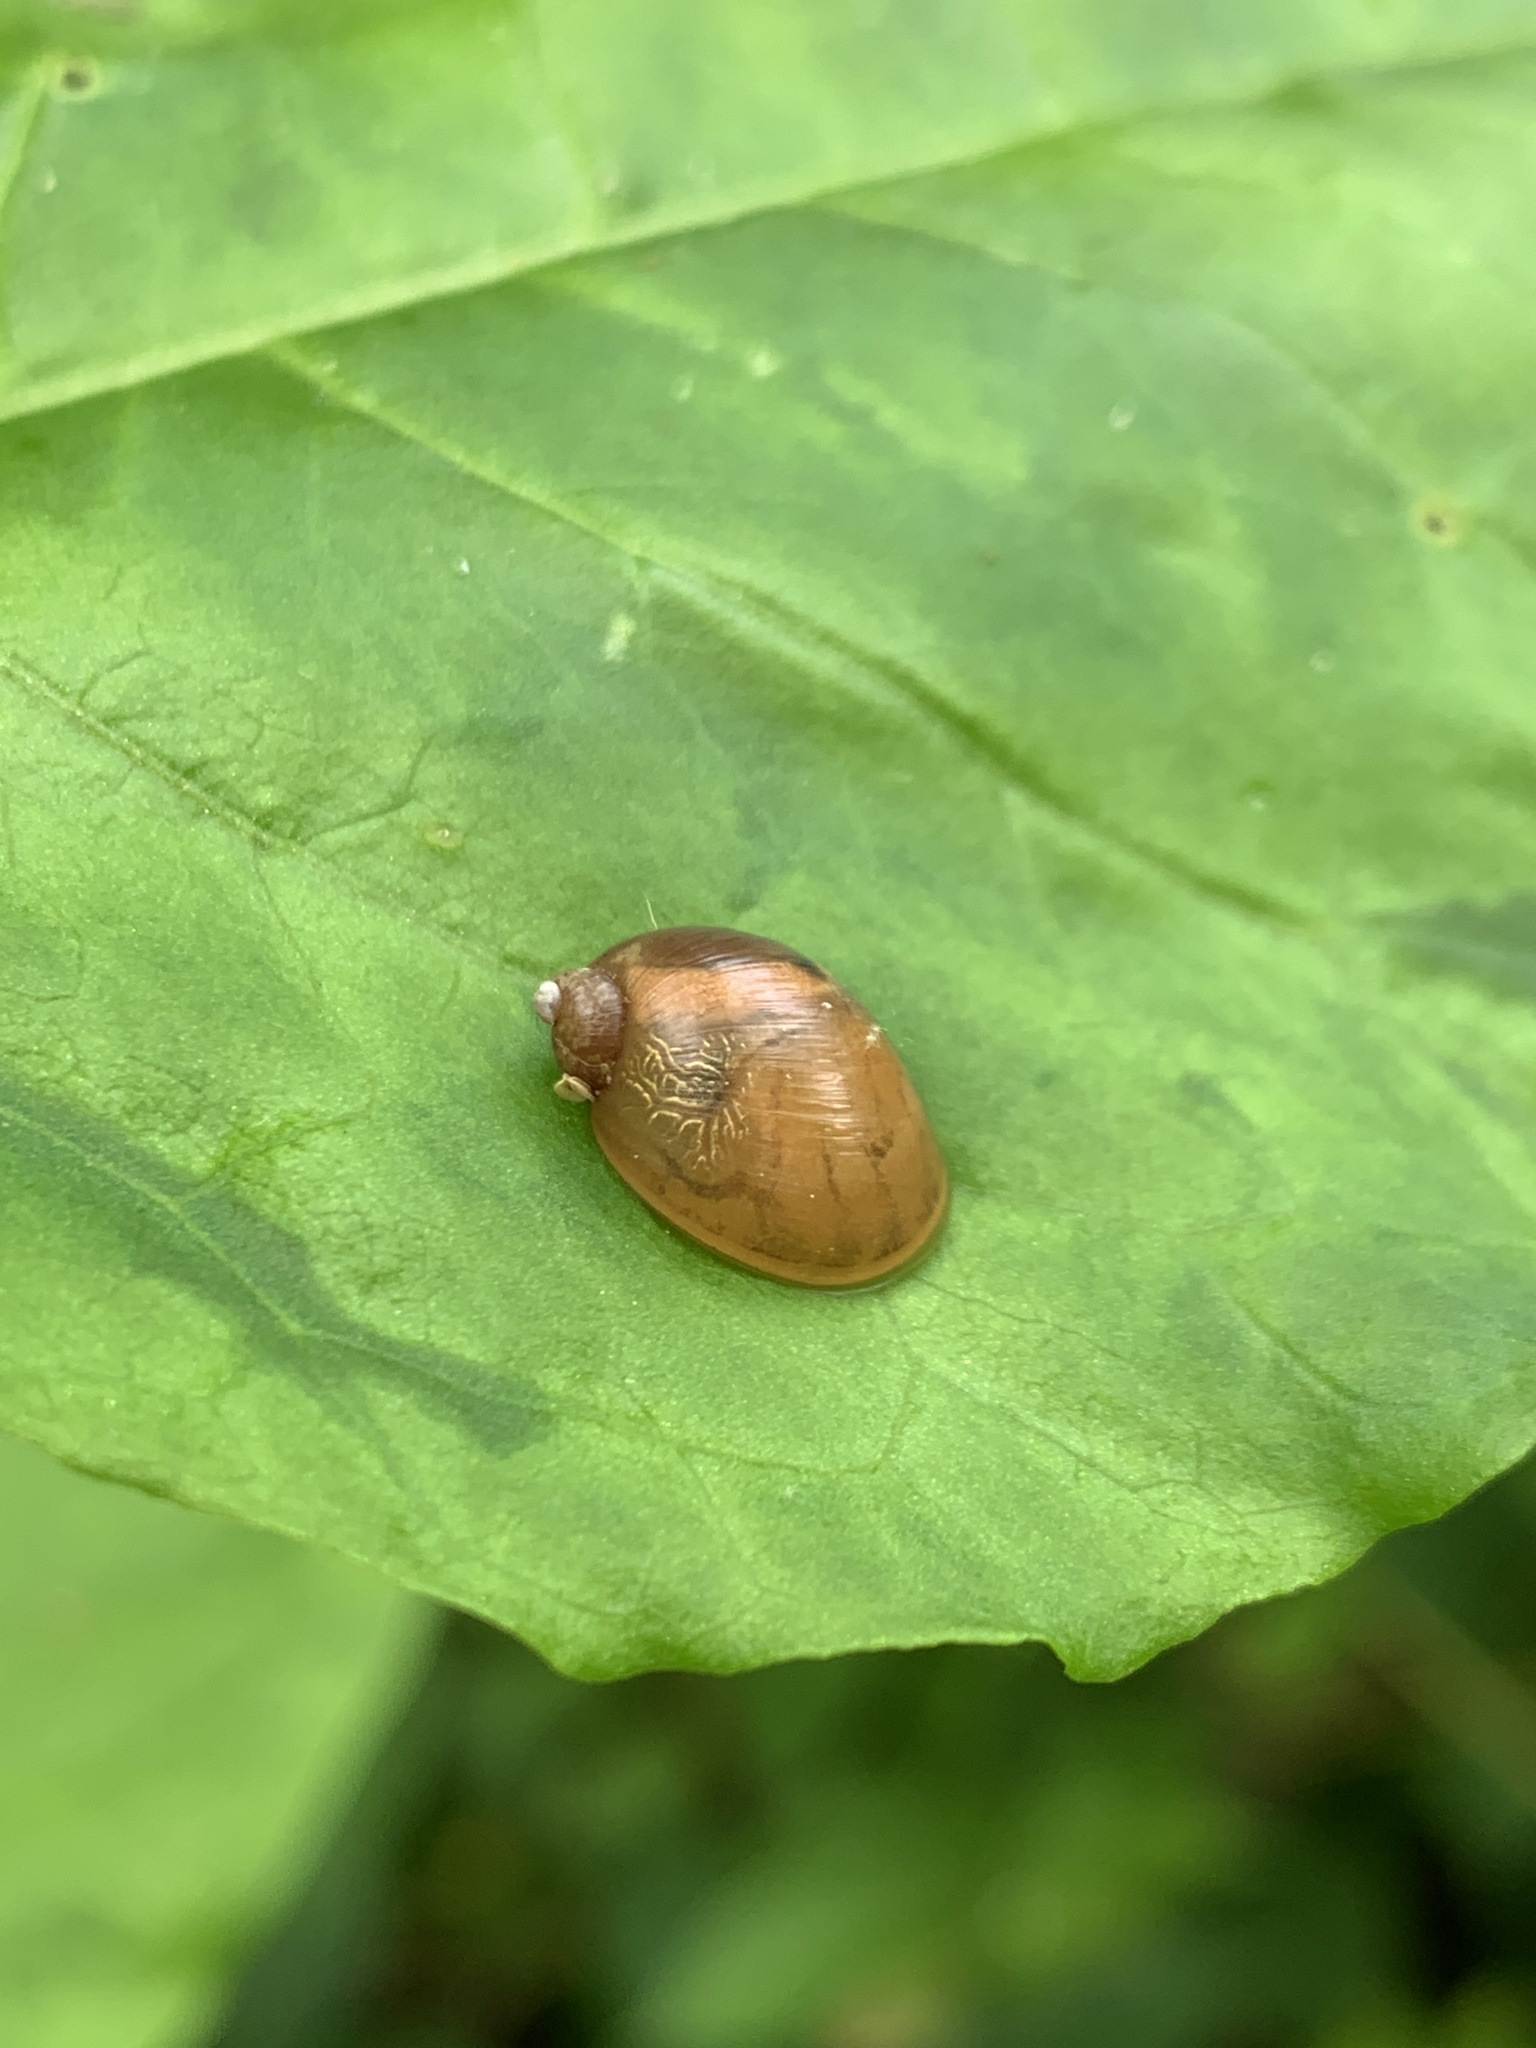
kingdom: Animalia
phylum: Mollusca
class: Gastropoda
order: Stylommatophora
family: Succineidae
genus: Novisuccinea
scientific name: Novisuccinea ovalis
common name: Oval ambersnail
